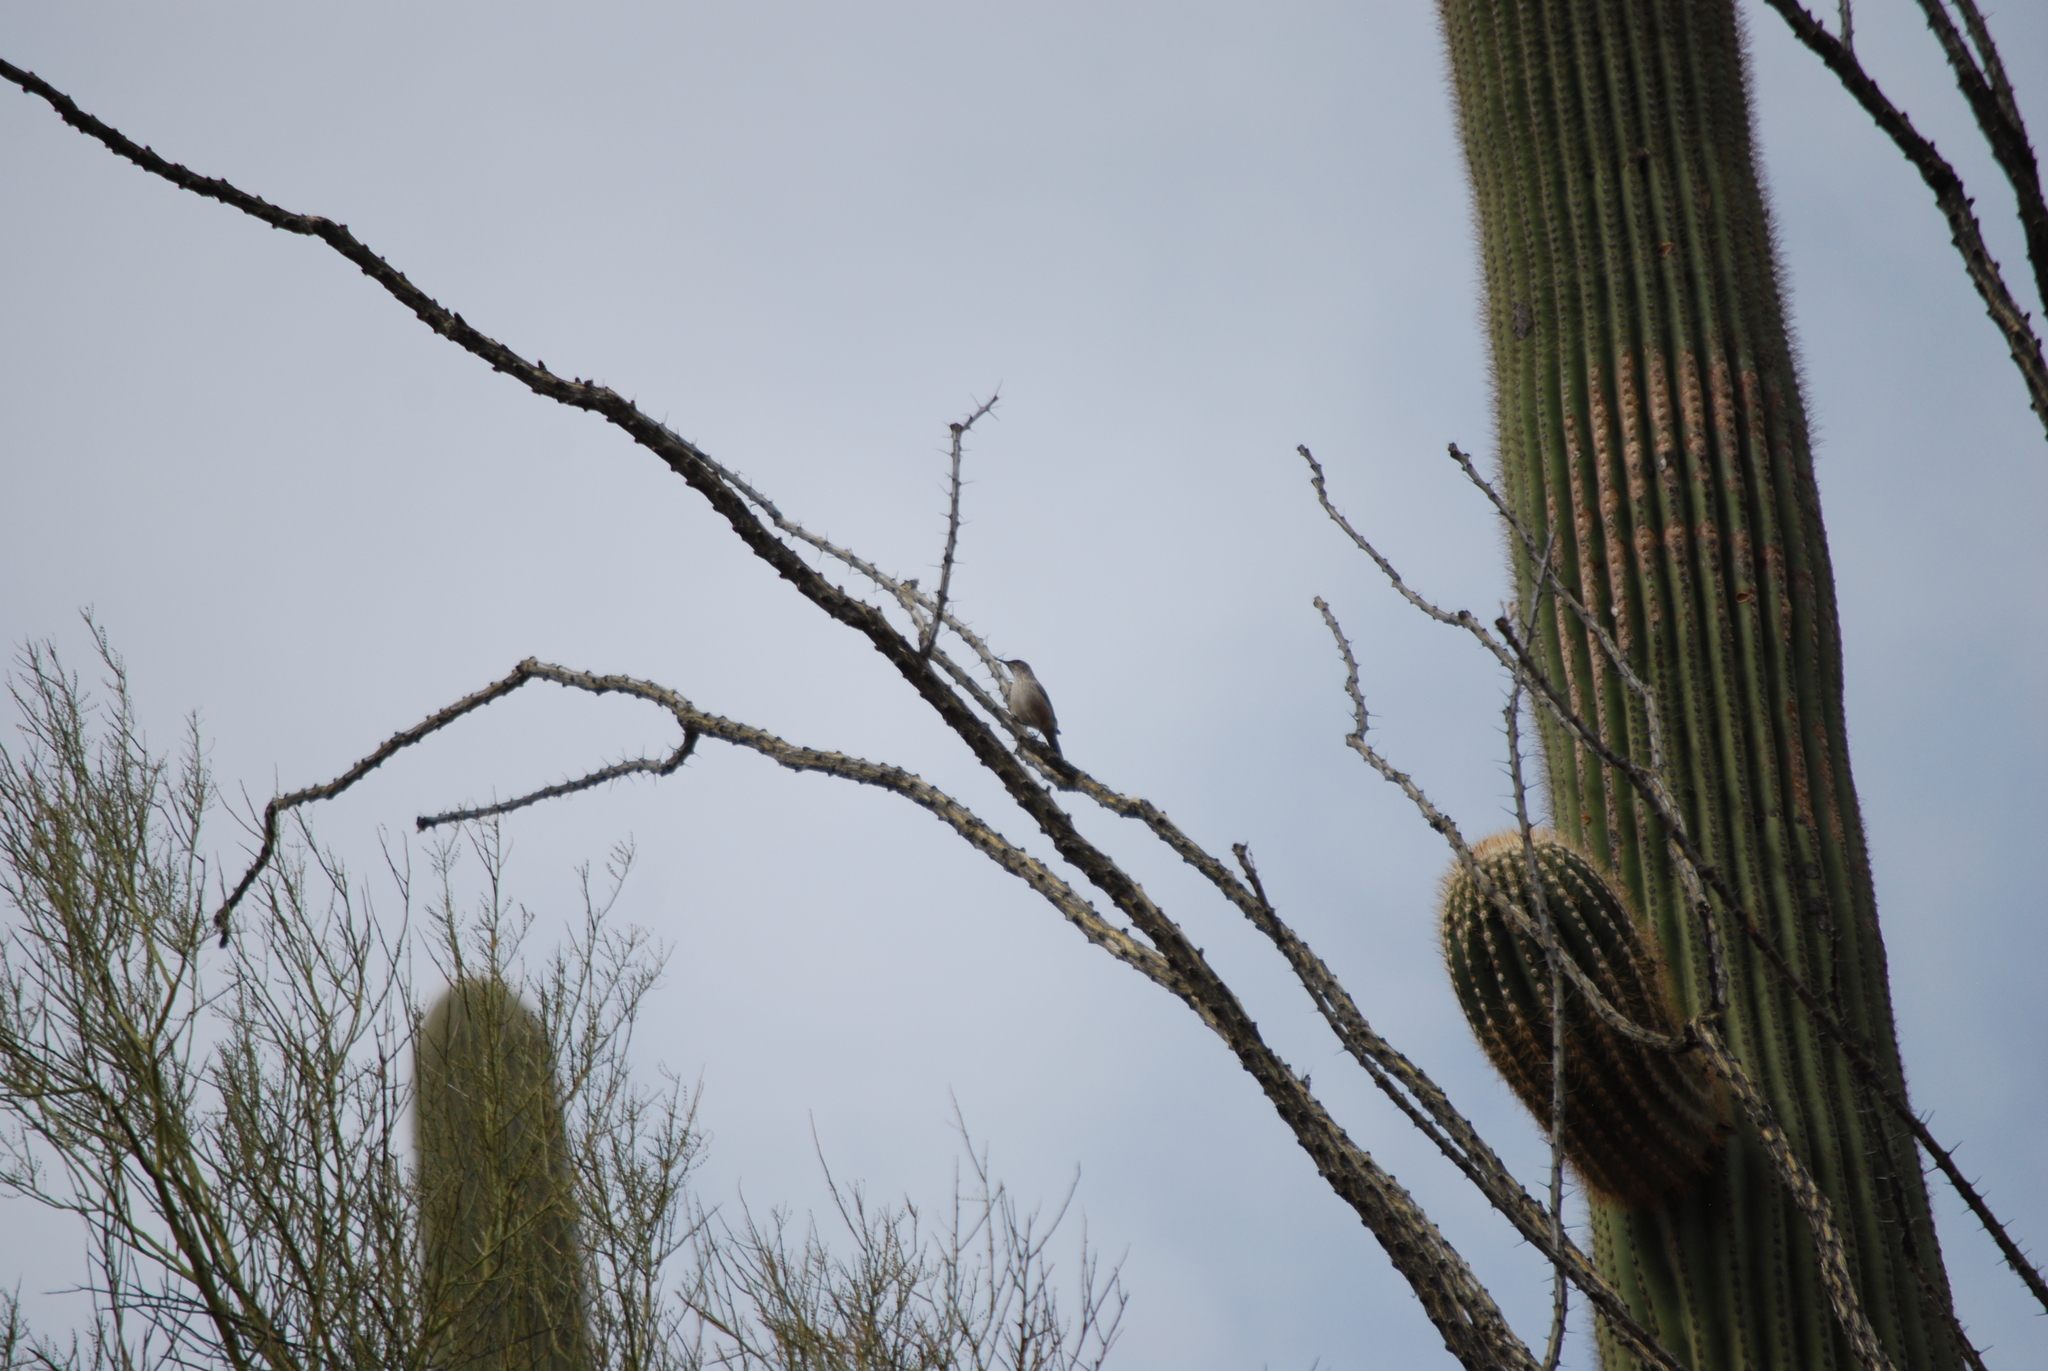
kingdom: Animalia
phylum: Chordata
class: Aves
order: Passeriformes
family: Troglodytidae
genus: Salpinctes
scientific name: Salpinctes obsoletus
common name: Rock wren
